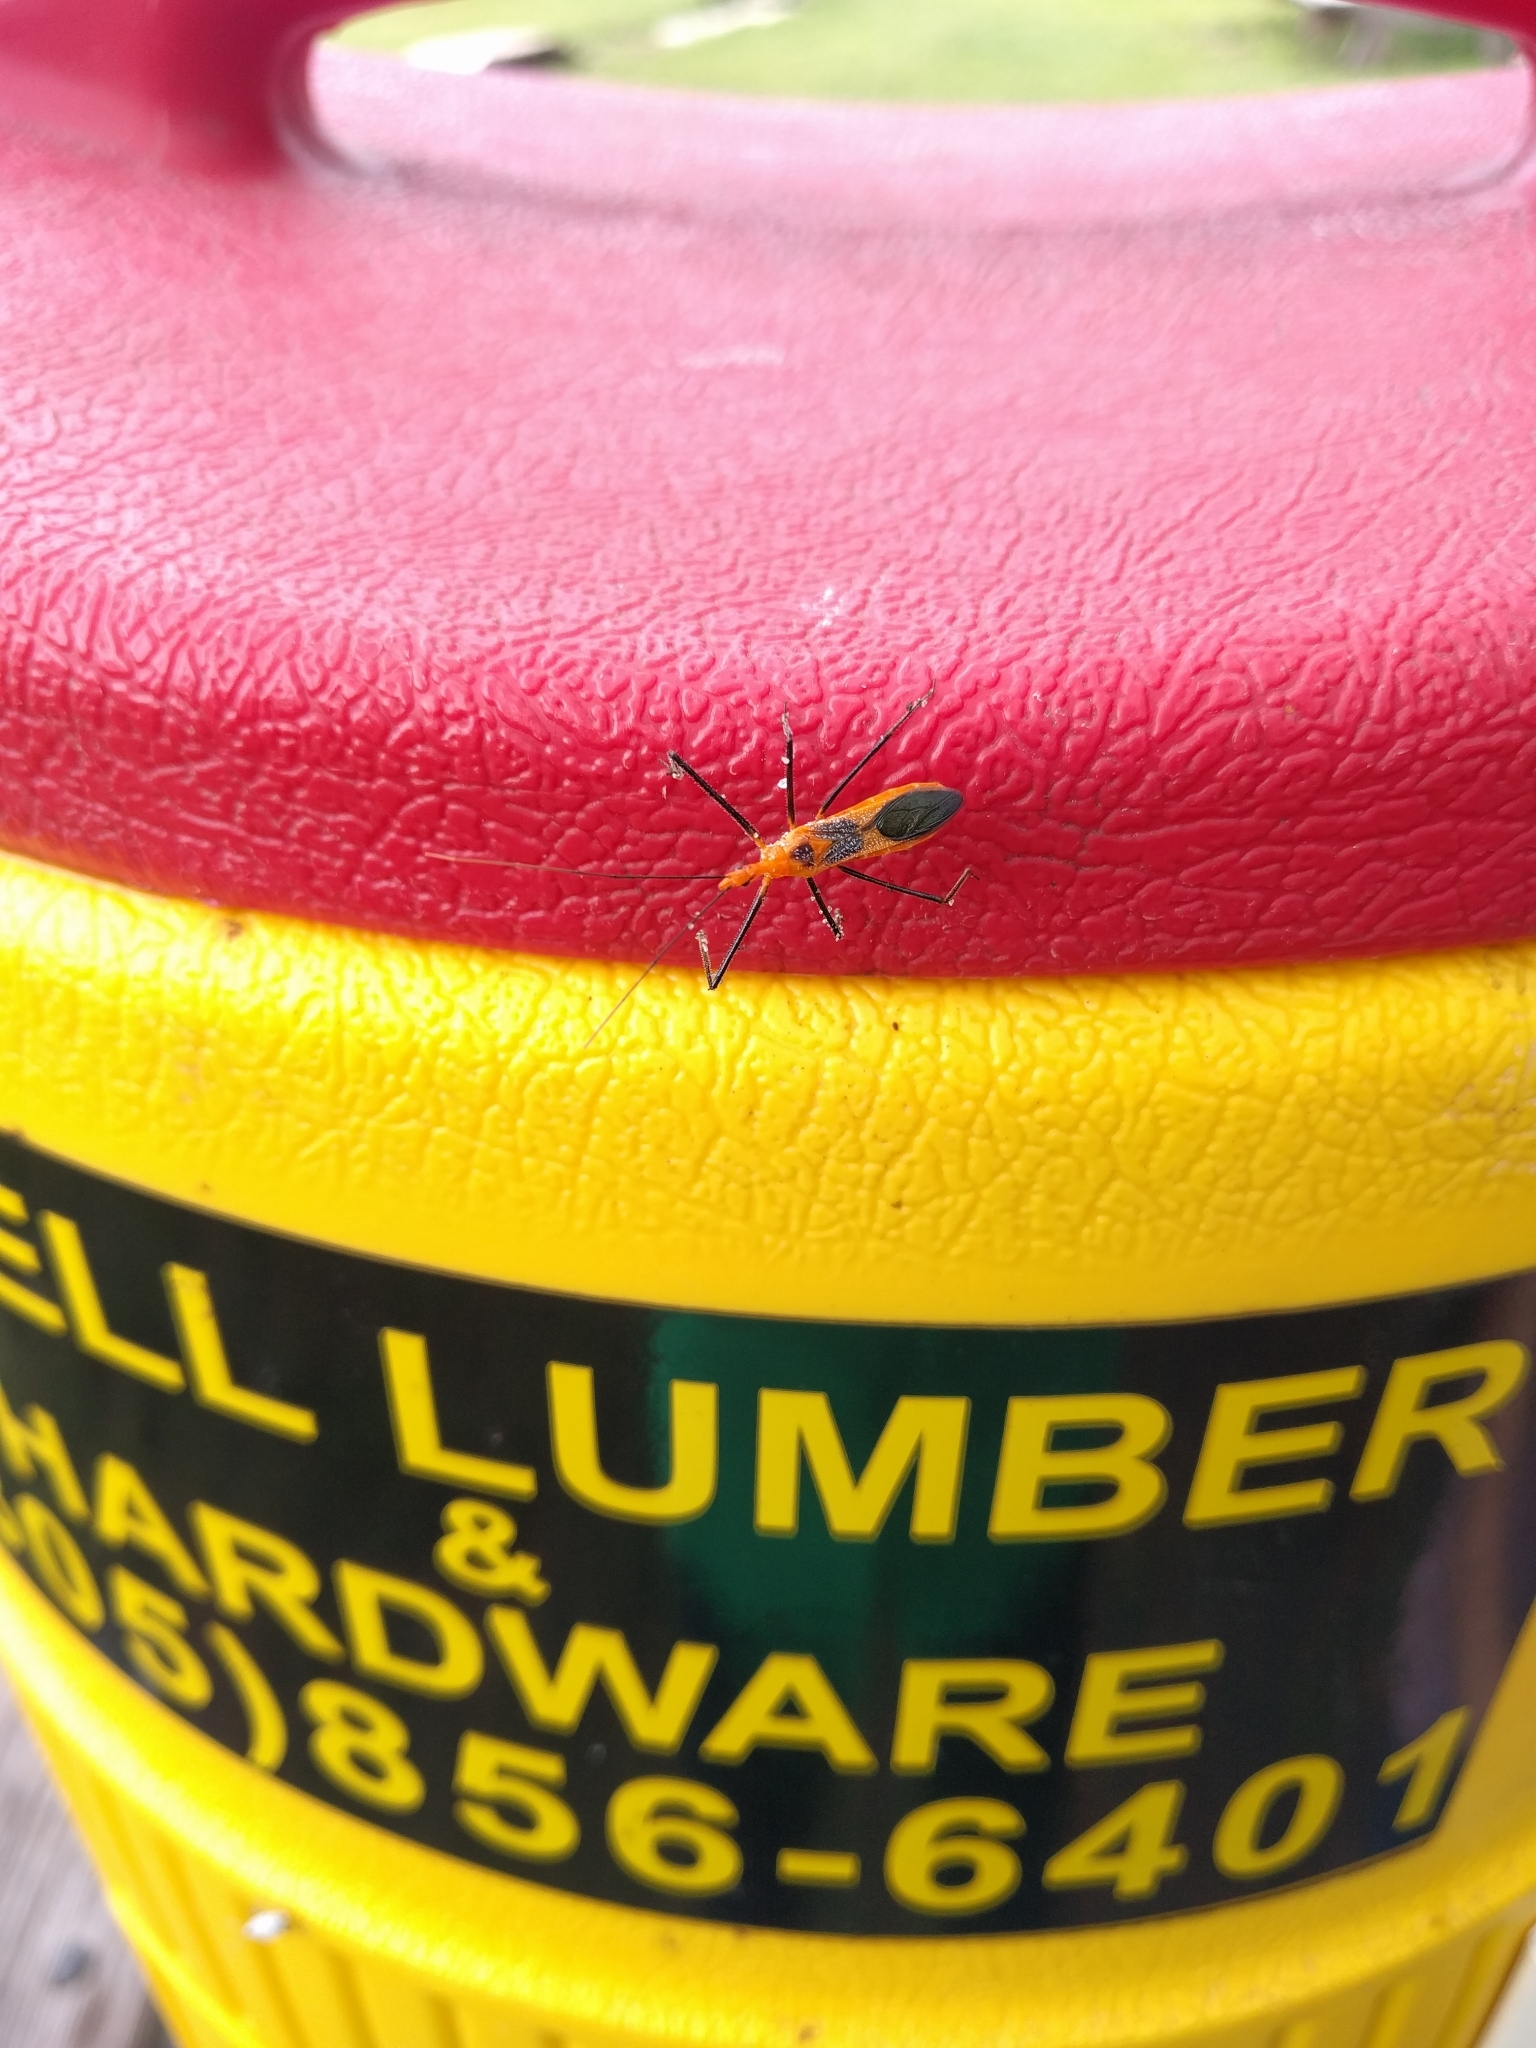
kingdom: Animalia
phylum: Arthropoda
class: Insecta
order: Hemiptera
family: Reduviidae
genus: Zelus
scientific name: Zelus longipes
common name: Milkweed assassin bug
